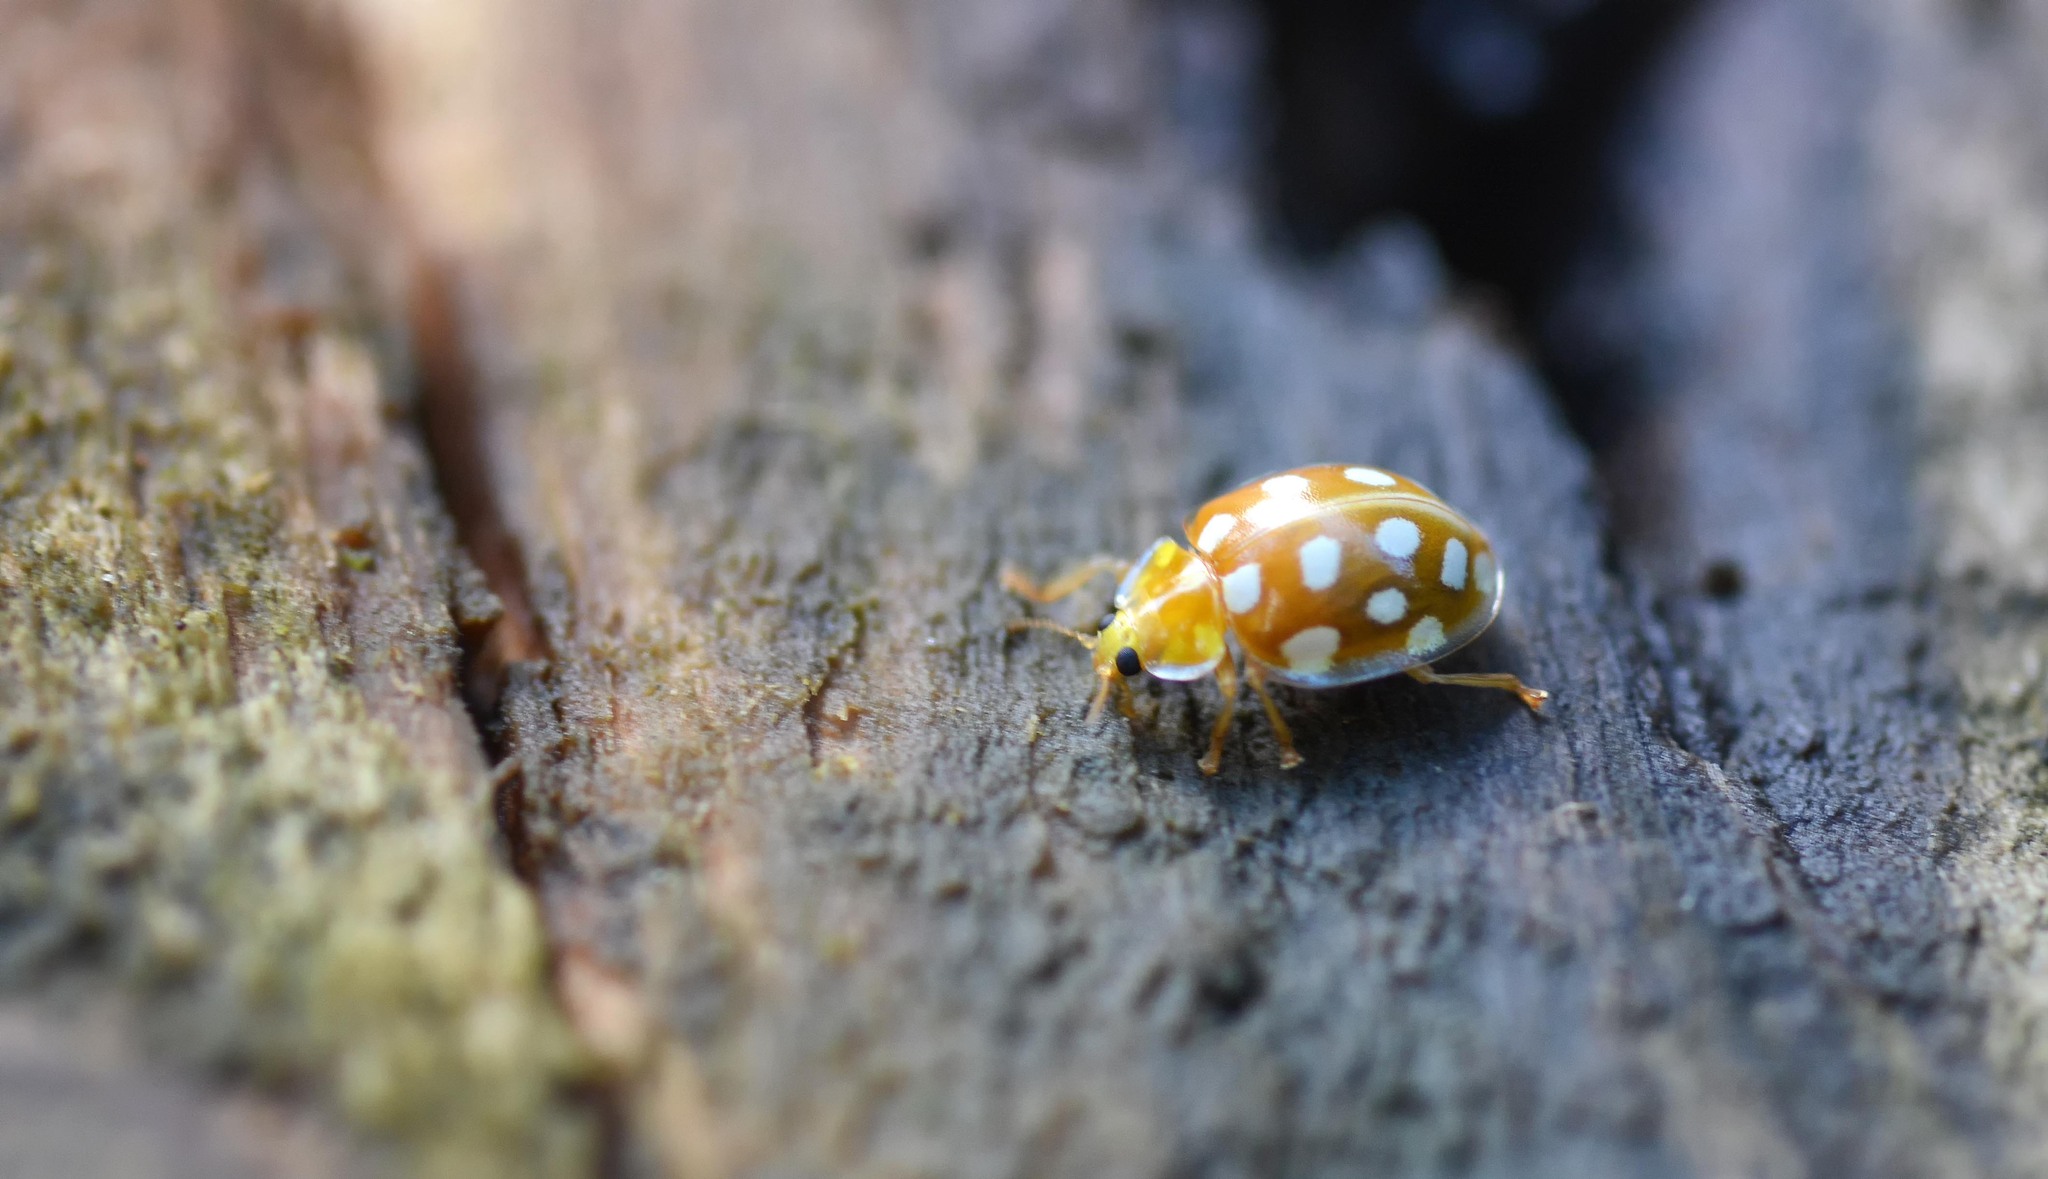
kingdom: Animalia
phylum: Arthropoda
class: Insecta
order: Coleoptera
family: Coccinellidae
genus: Halyzia
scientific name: Halyzia sedecimguttata
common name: Orange ladybird
